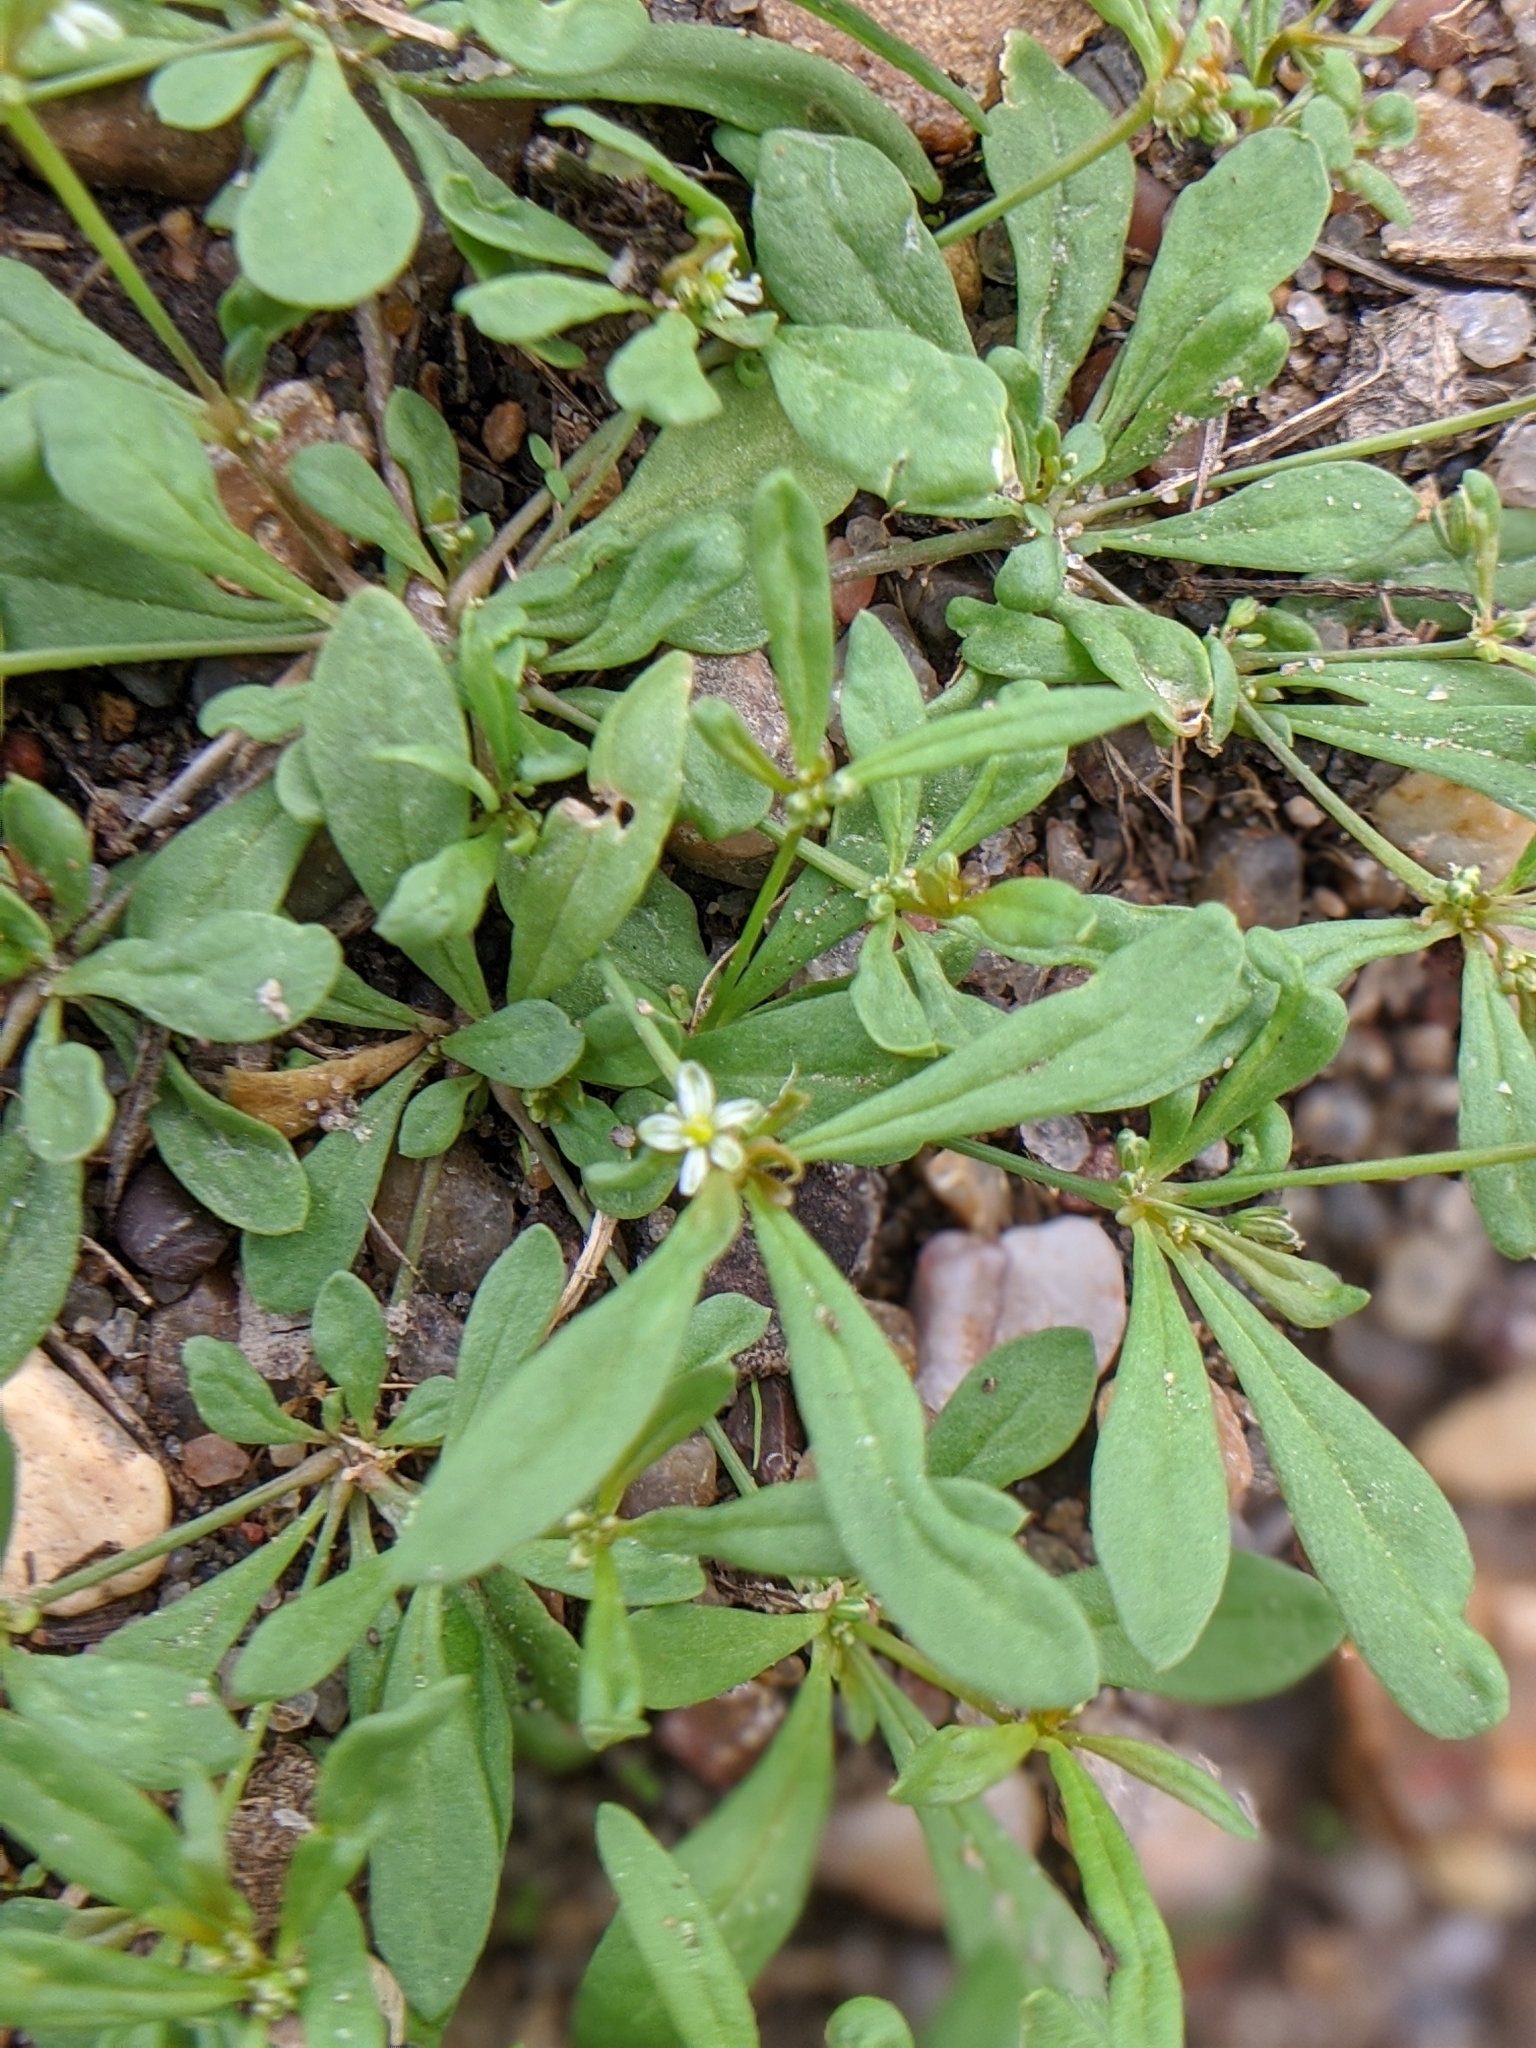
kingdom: Plantae
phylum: Tracheophyta
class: Magnoliopsida
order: Caryophyllales
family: Molluginaceae
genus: Mollugo
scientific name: Mollugo verticillata
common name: Green carpetweed
